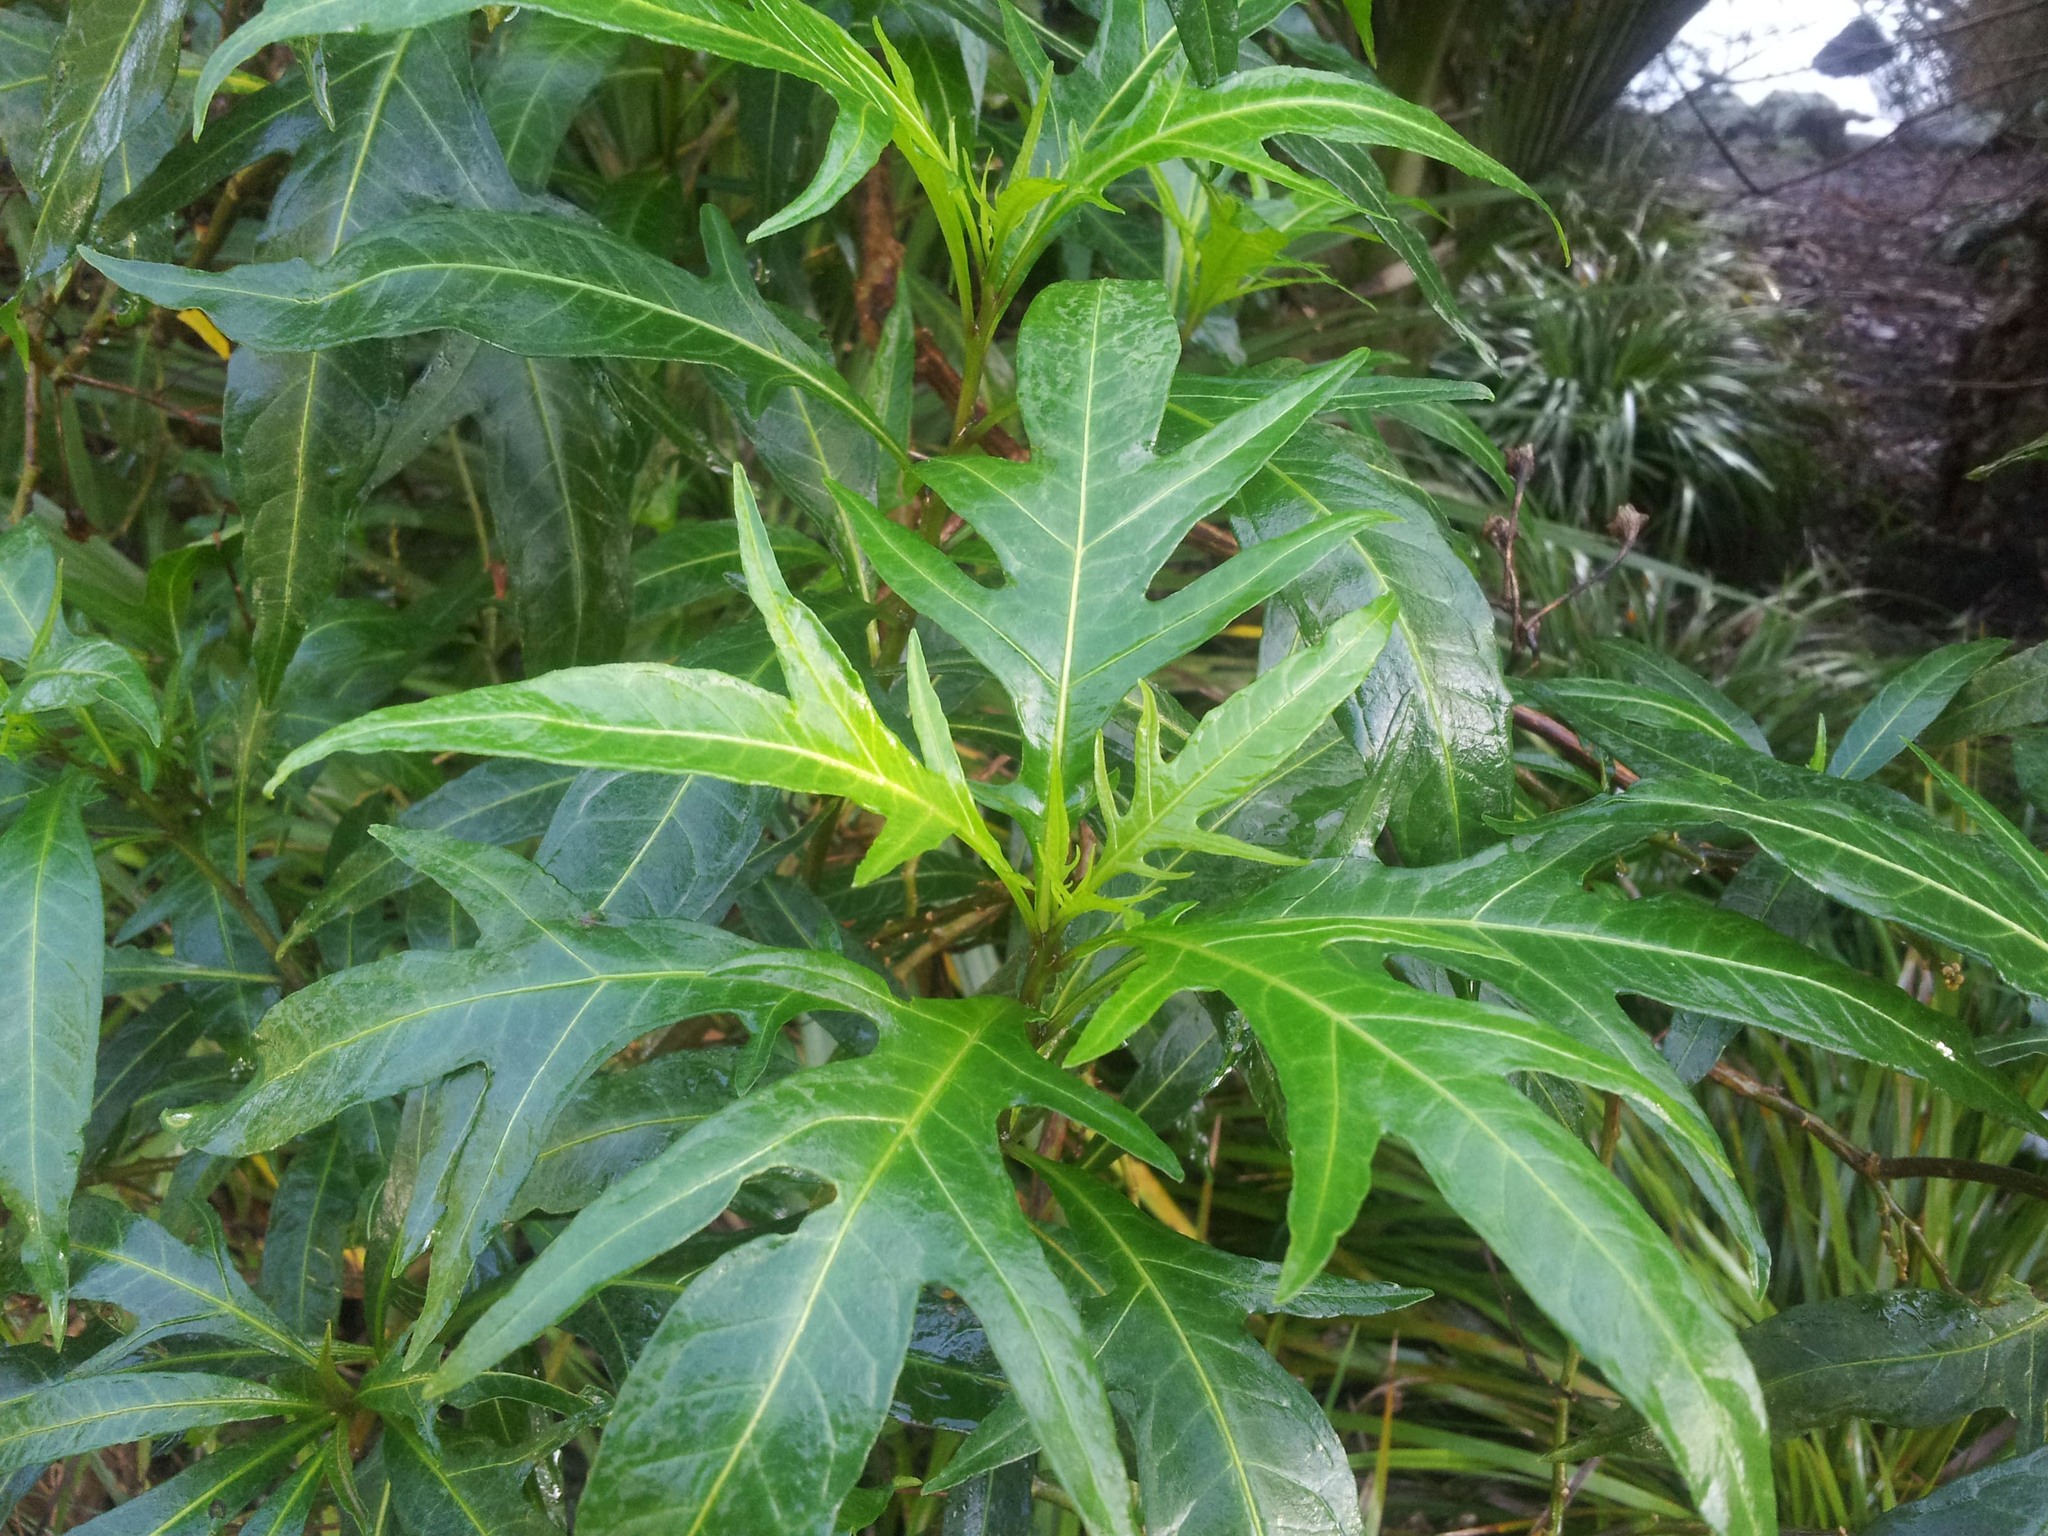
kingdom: Plantae
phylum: Tracheophyta
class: Magnoliopsida
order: Solanales
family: Solanaceae
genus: Solanum
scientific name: Solanum laciniatum
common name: Kangaroo-apple
